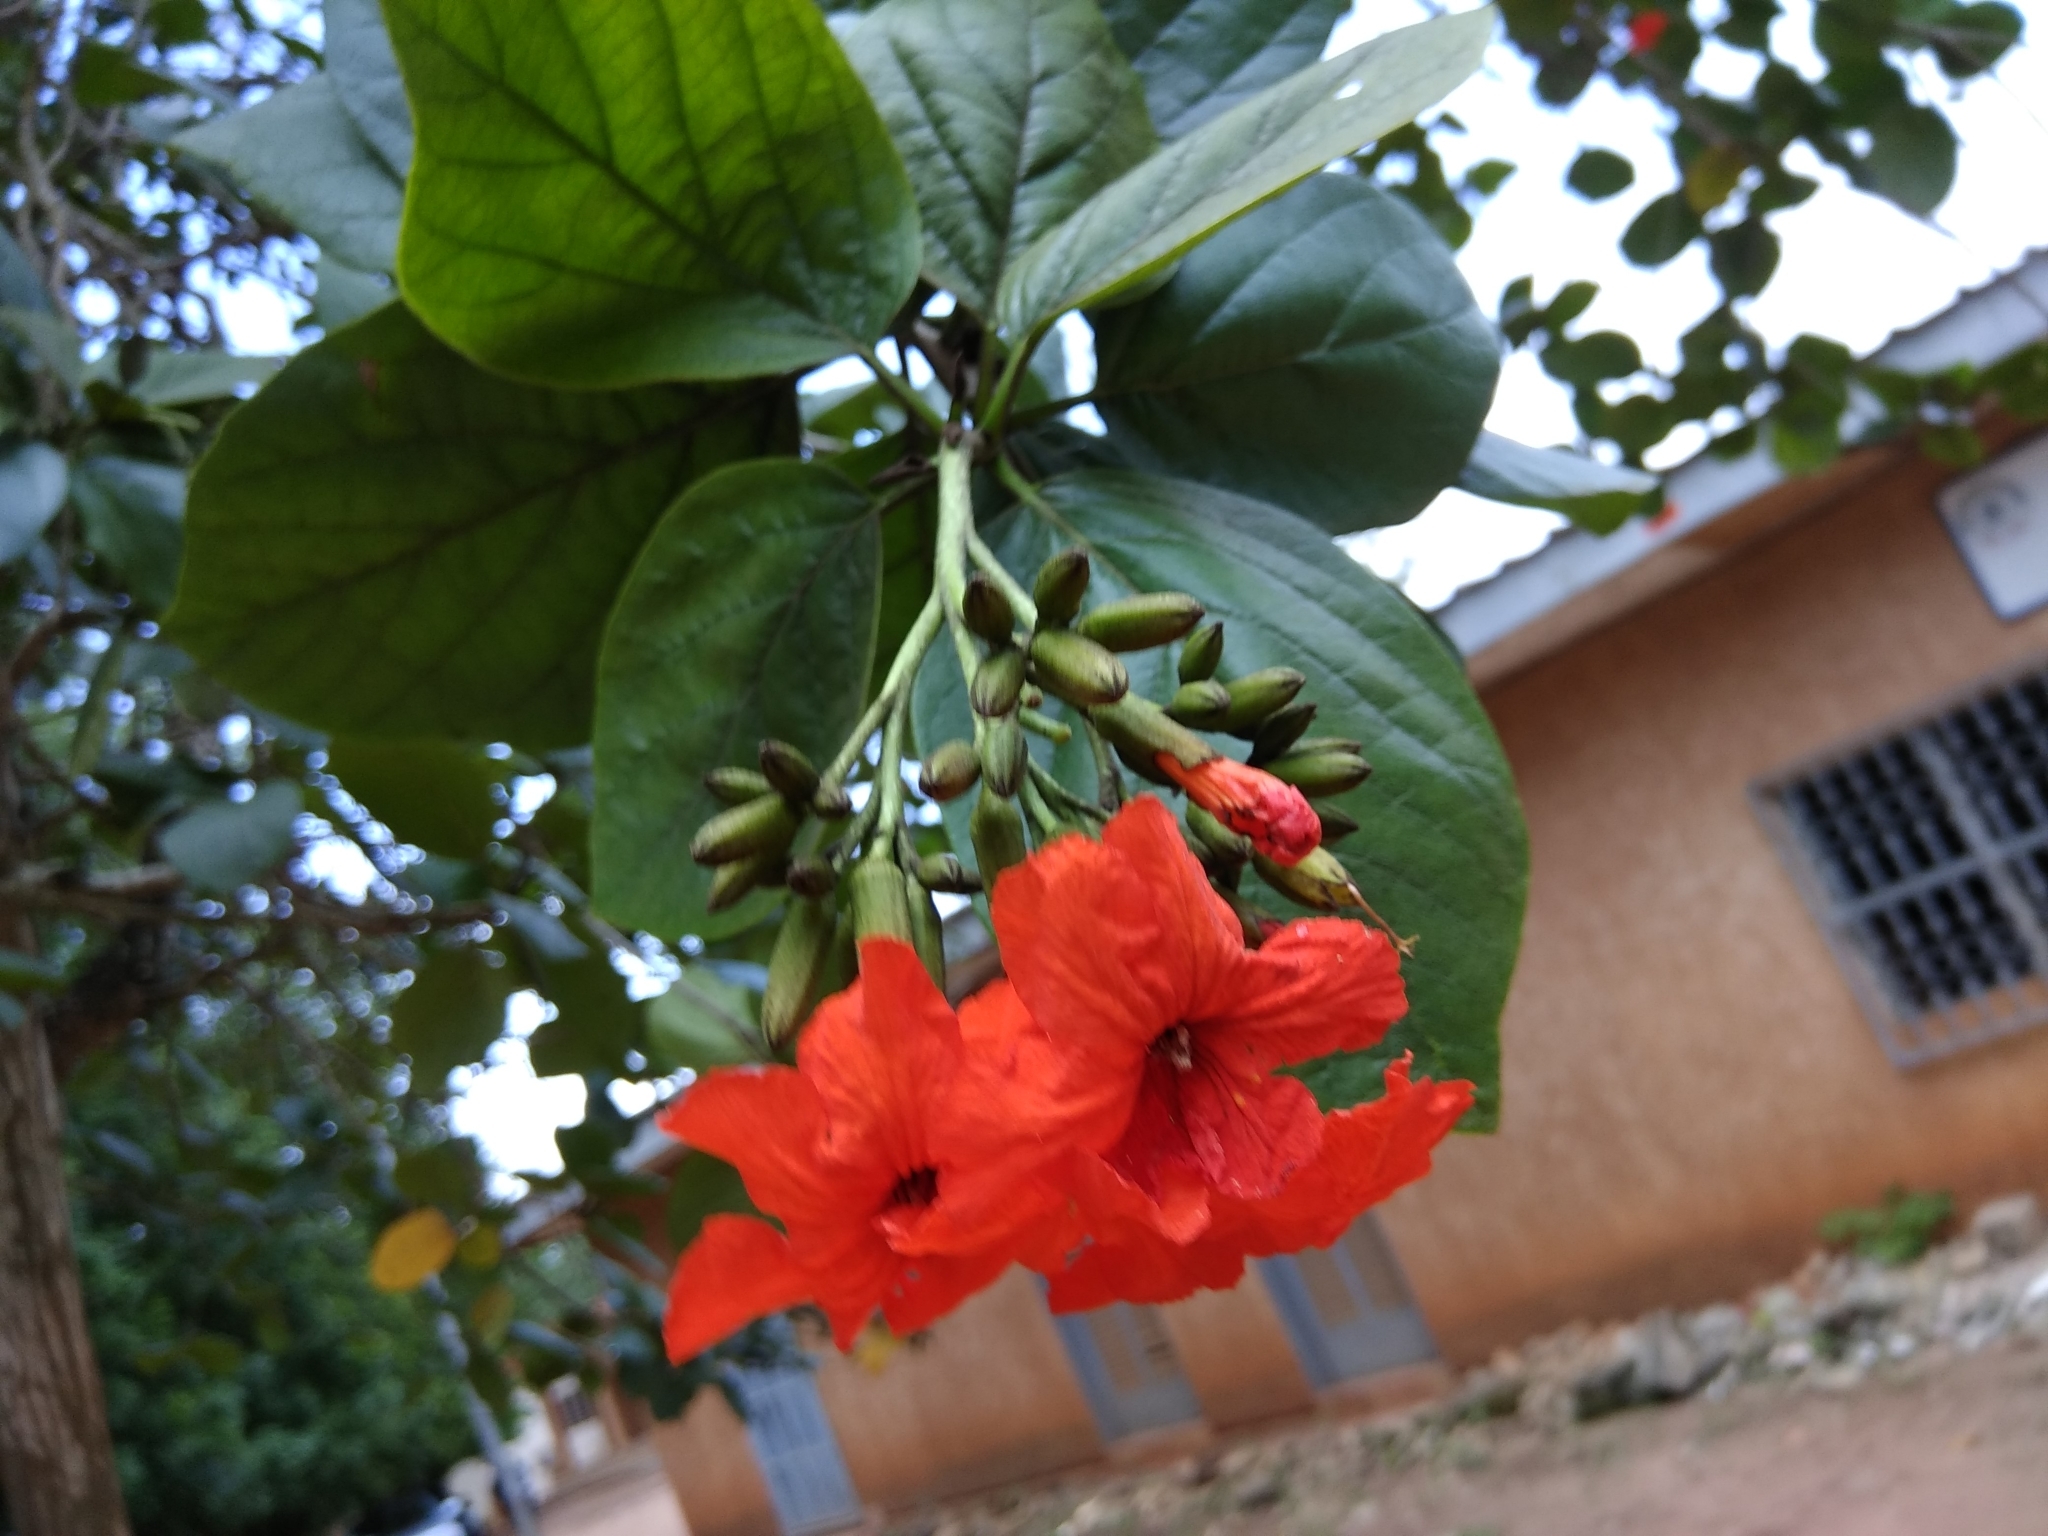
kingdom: Plantae
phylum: Tracheophyta
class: Magnoliopsida
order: Boraginales
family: Cordiaceae
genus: Cordia
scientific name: Cordia sebestena
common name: Largeleaf geigertree
